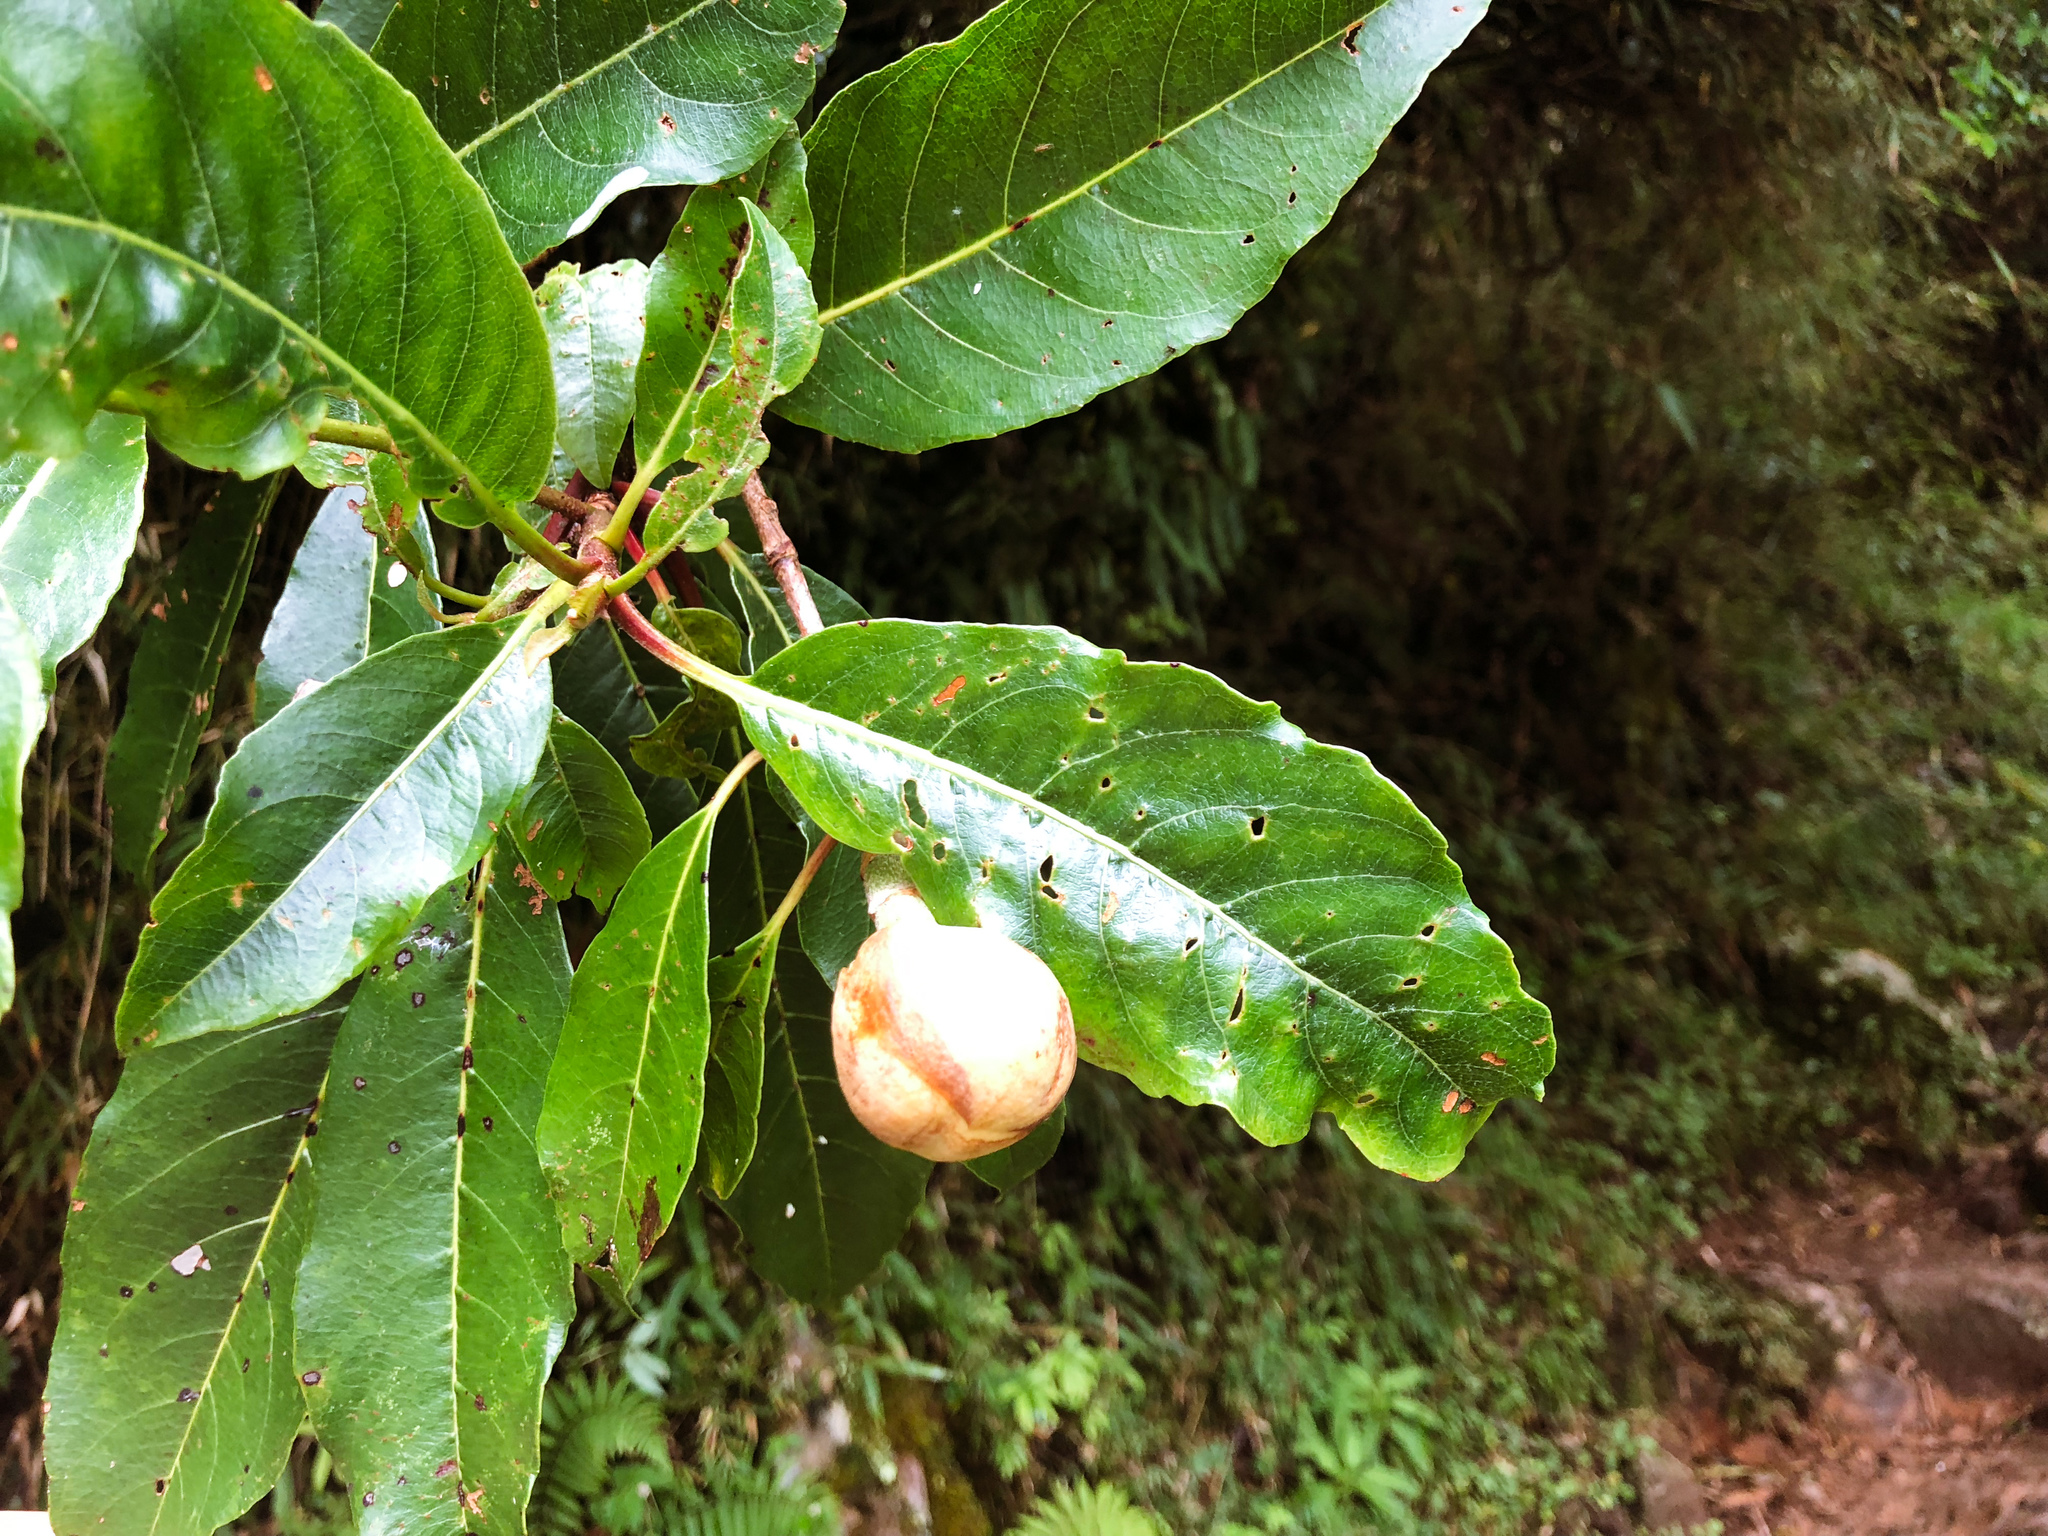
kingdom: Plantae
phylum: Tracheophyta
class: Magnoliopsida
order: Cornales
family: Hydrangeaceae
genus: Hydrangea
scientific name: Hydrangea integrifolia
